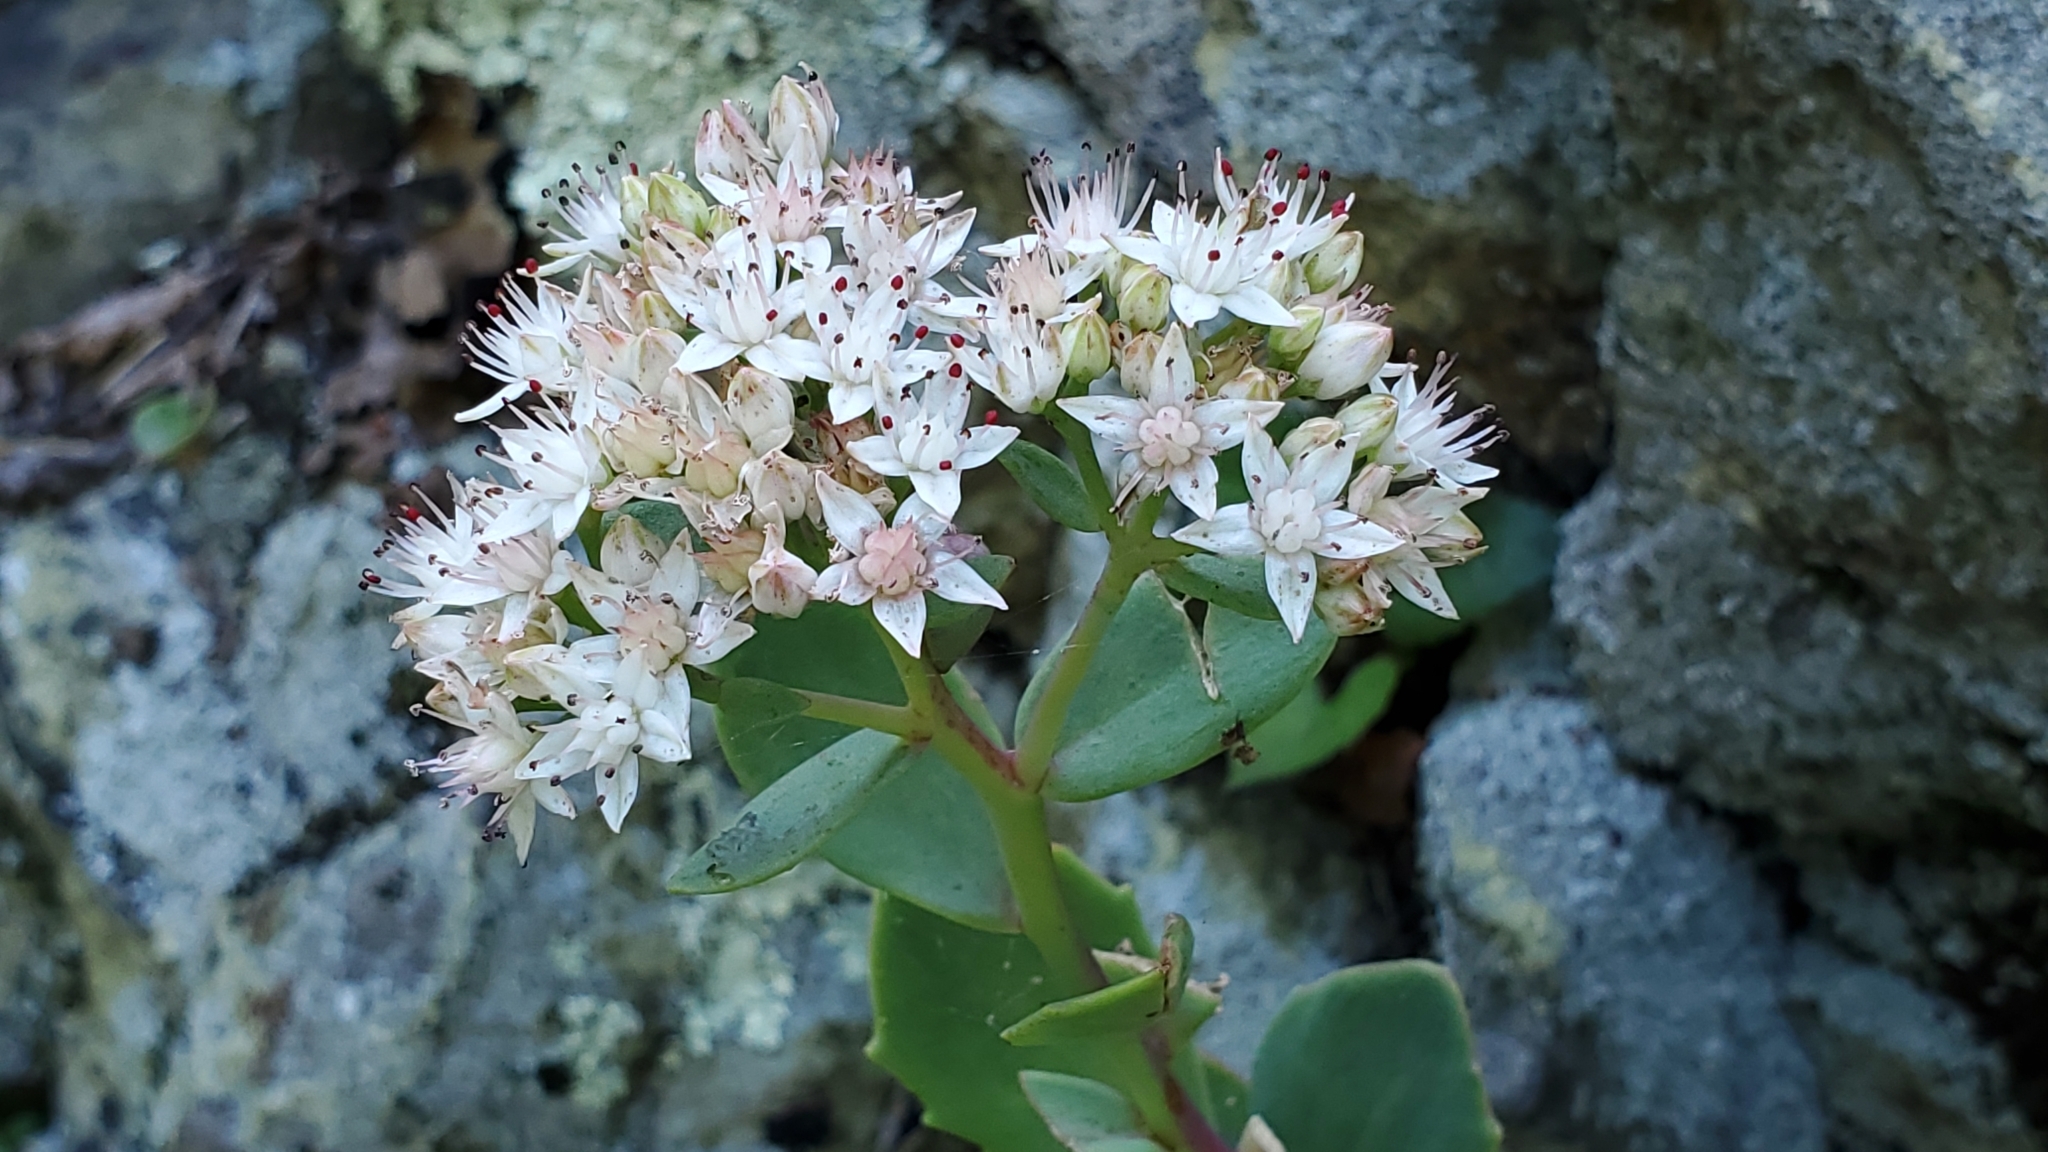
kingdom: Plantae
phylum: Tracheophyta
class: Magnoliopsida
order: Saxifragales
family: Crassulaceae
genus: Hylotelephium
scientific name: Hylotelephium telephioides
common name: Allegheny stonecrop
